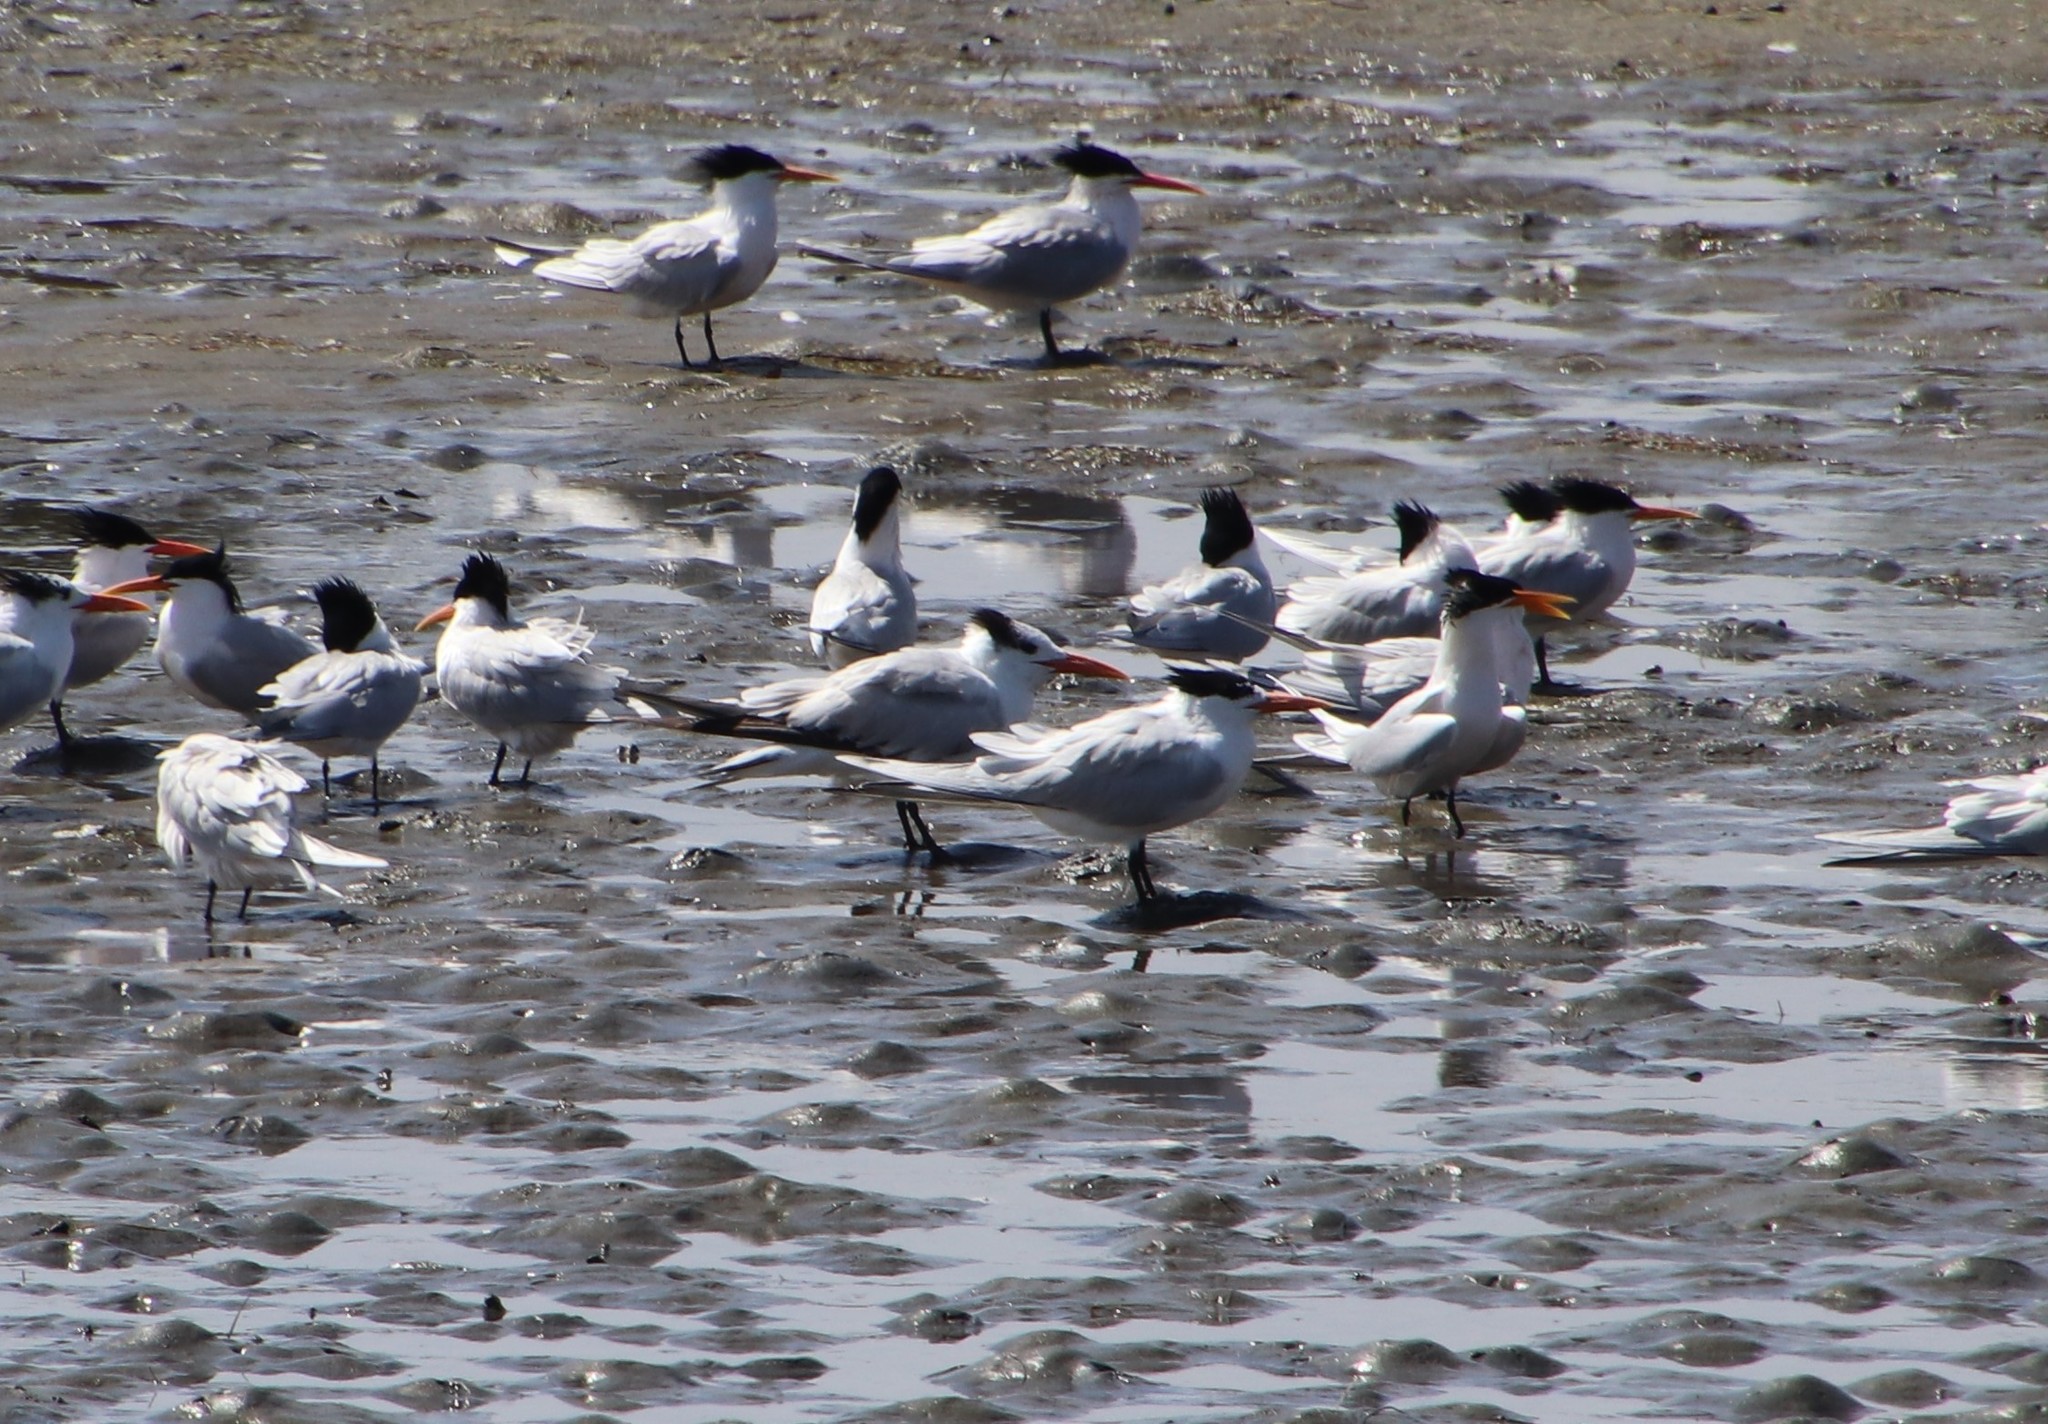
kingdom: Animalia
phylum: Chordata
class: Aves
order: Charadriiformes
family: Laridae
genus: Thalasseus
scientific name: Thalasseus maximus
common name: Royal tern
